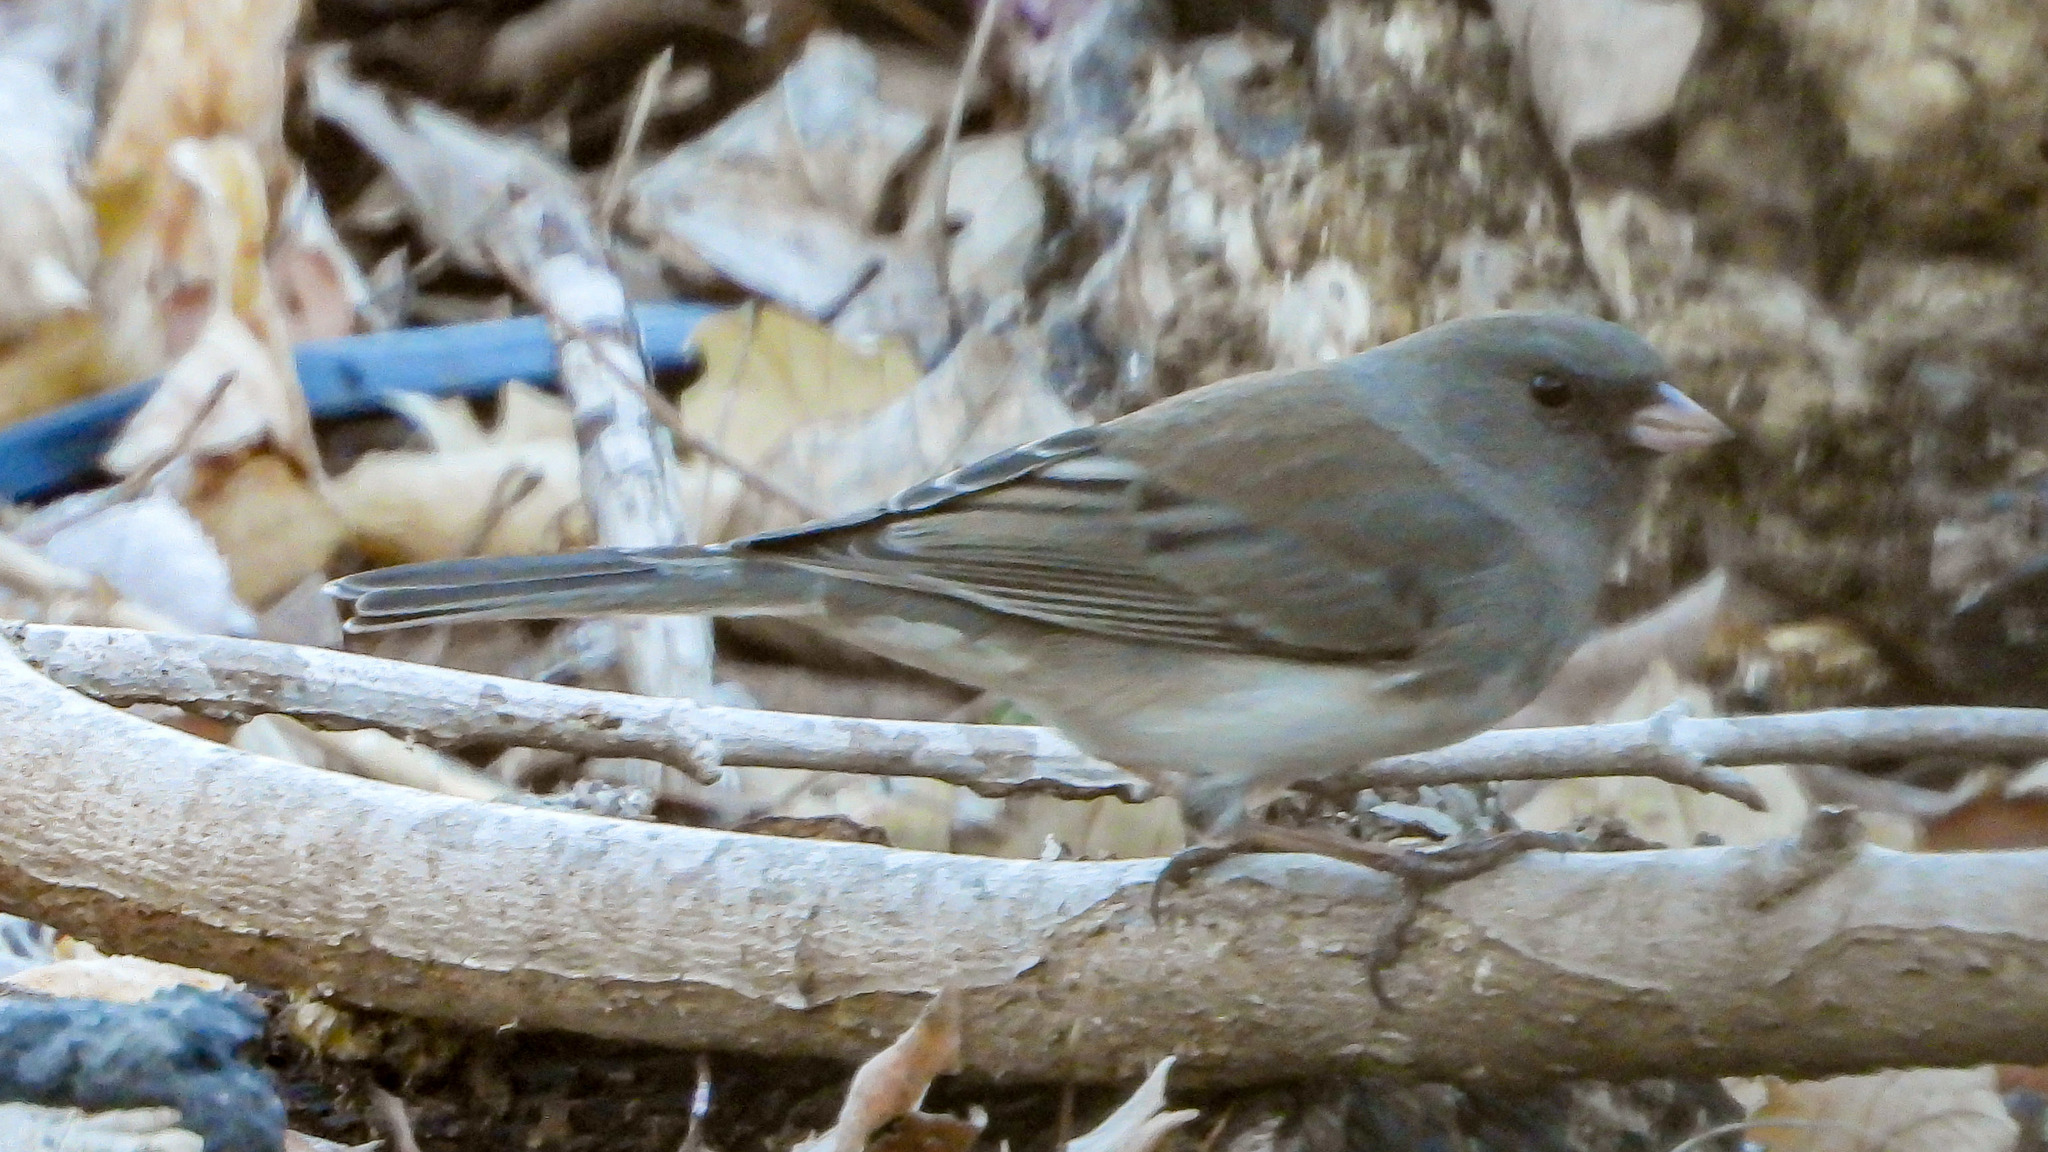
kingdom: Animalia
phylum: Chordata
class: Aves
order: Passeriformes
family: Passerellidae
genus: Junco
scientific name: Junco hyemalis
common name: Dark-eyed junco
